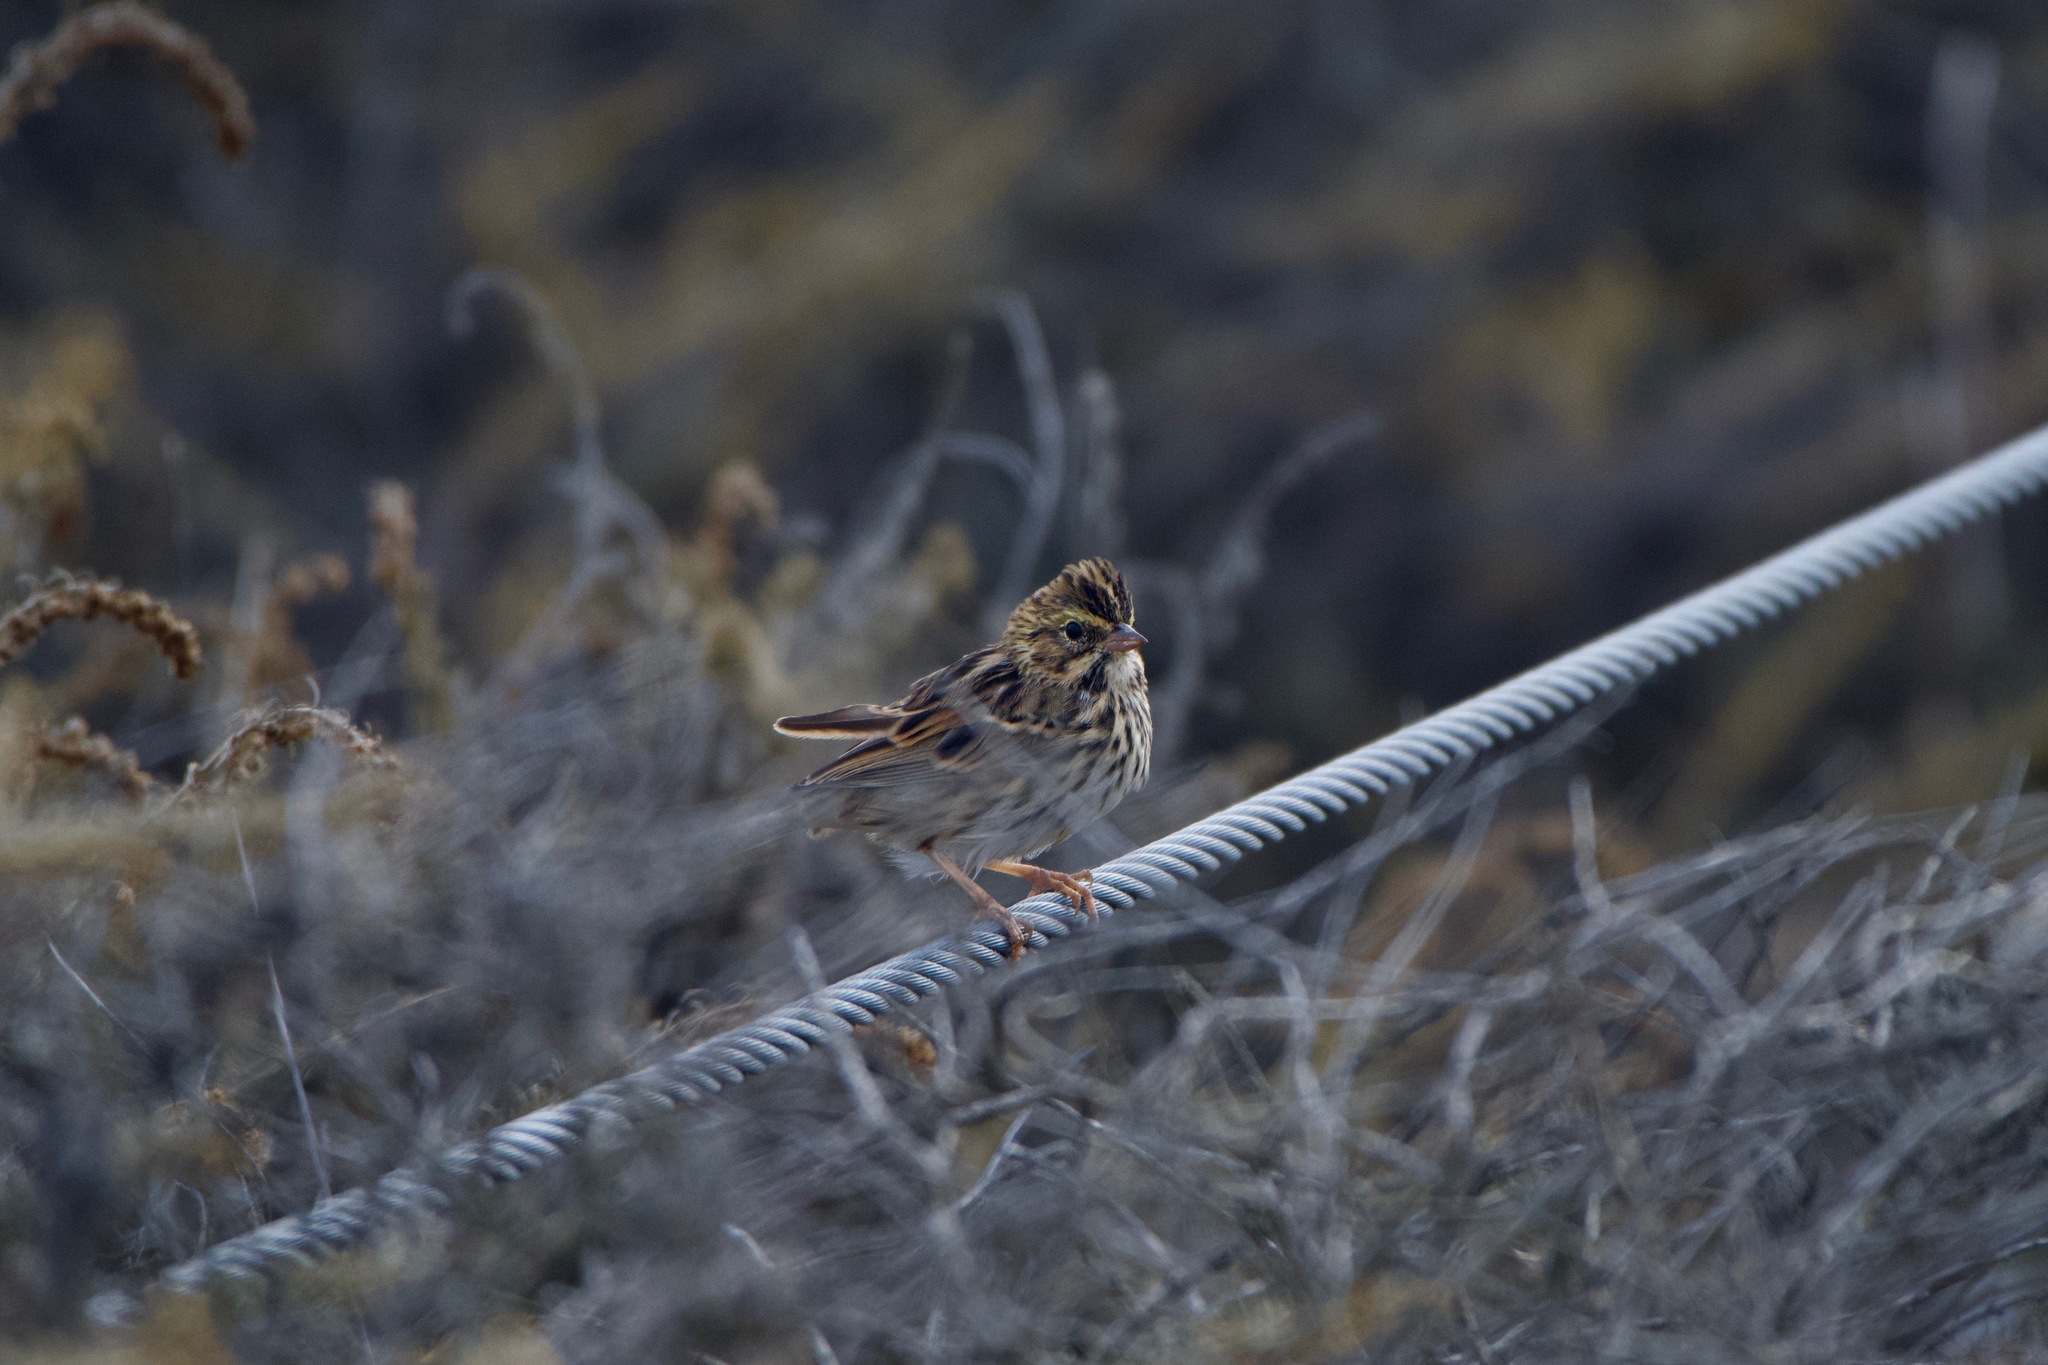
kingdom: Animalia
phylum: Chordata
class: Aves
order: Passeriformes
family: Passerellidae
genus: Passerculus
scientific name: Passerculus sandwichensis
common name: Savannah sparrow
